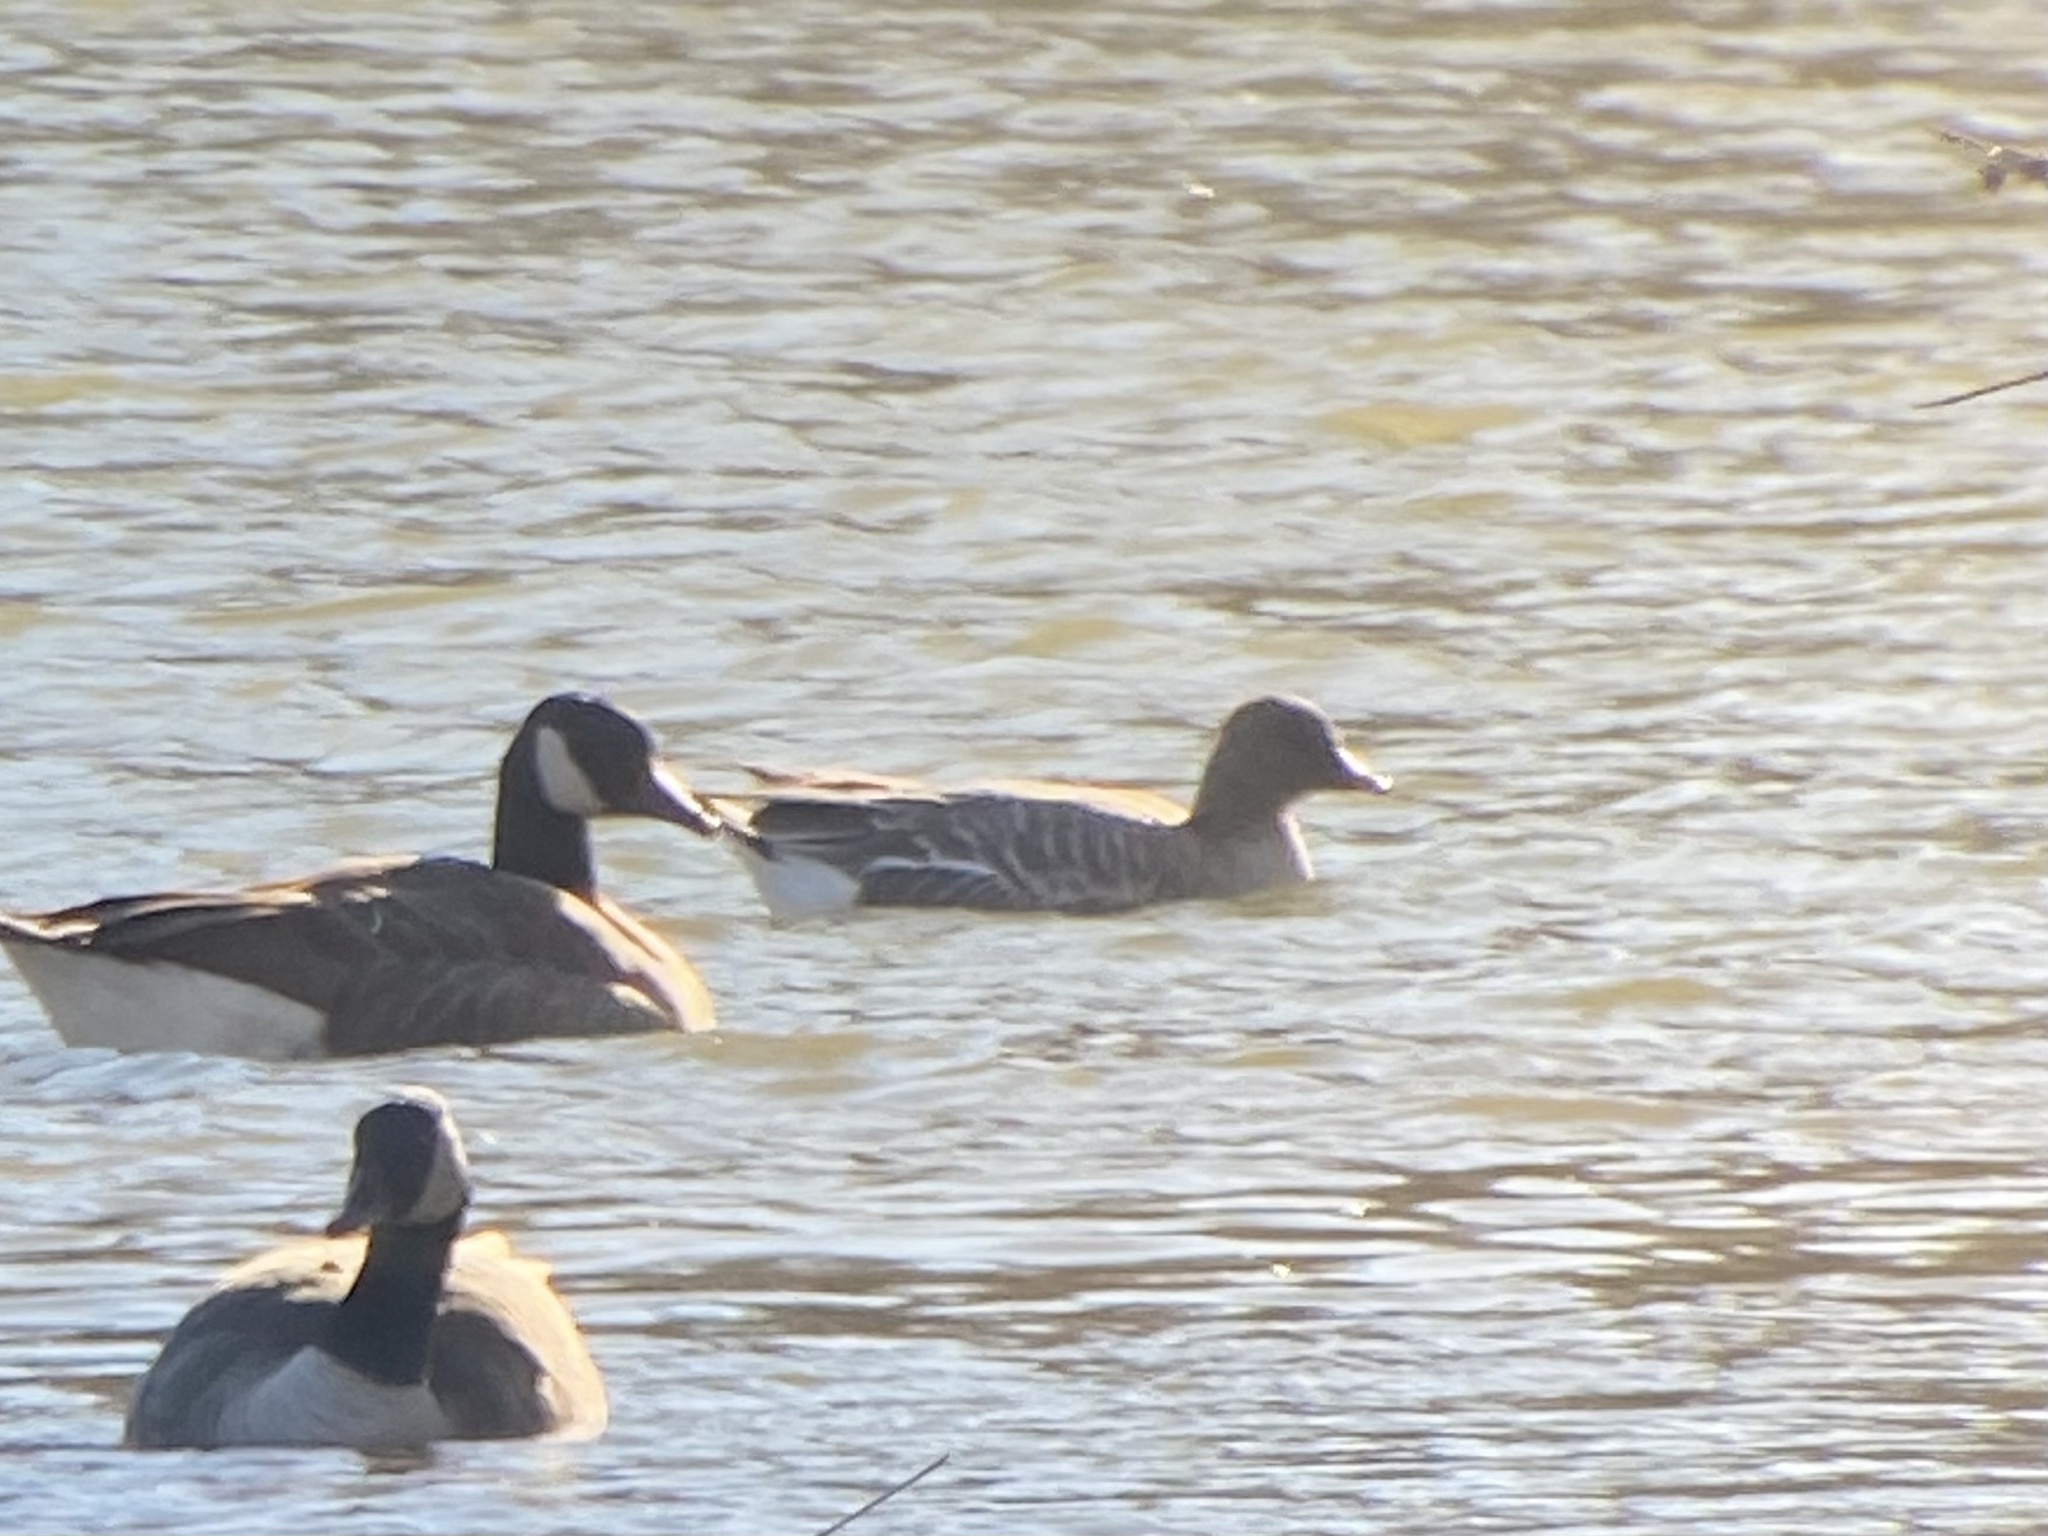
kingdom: Animalia
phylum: Chordata
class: Aves
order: Anseriformes
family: Anatidae
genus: Anser
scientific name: Anser brachyrhynchus
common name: Pink-footed goose
